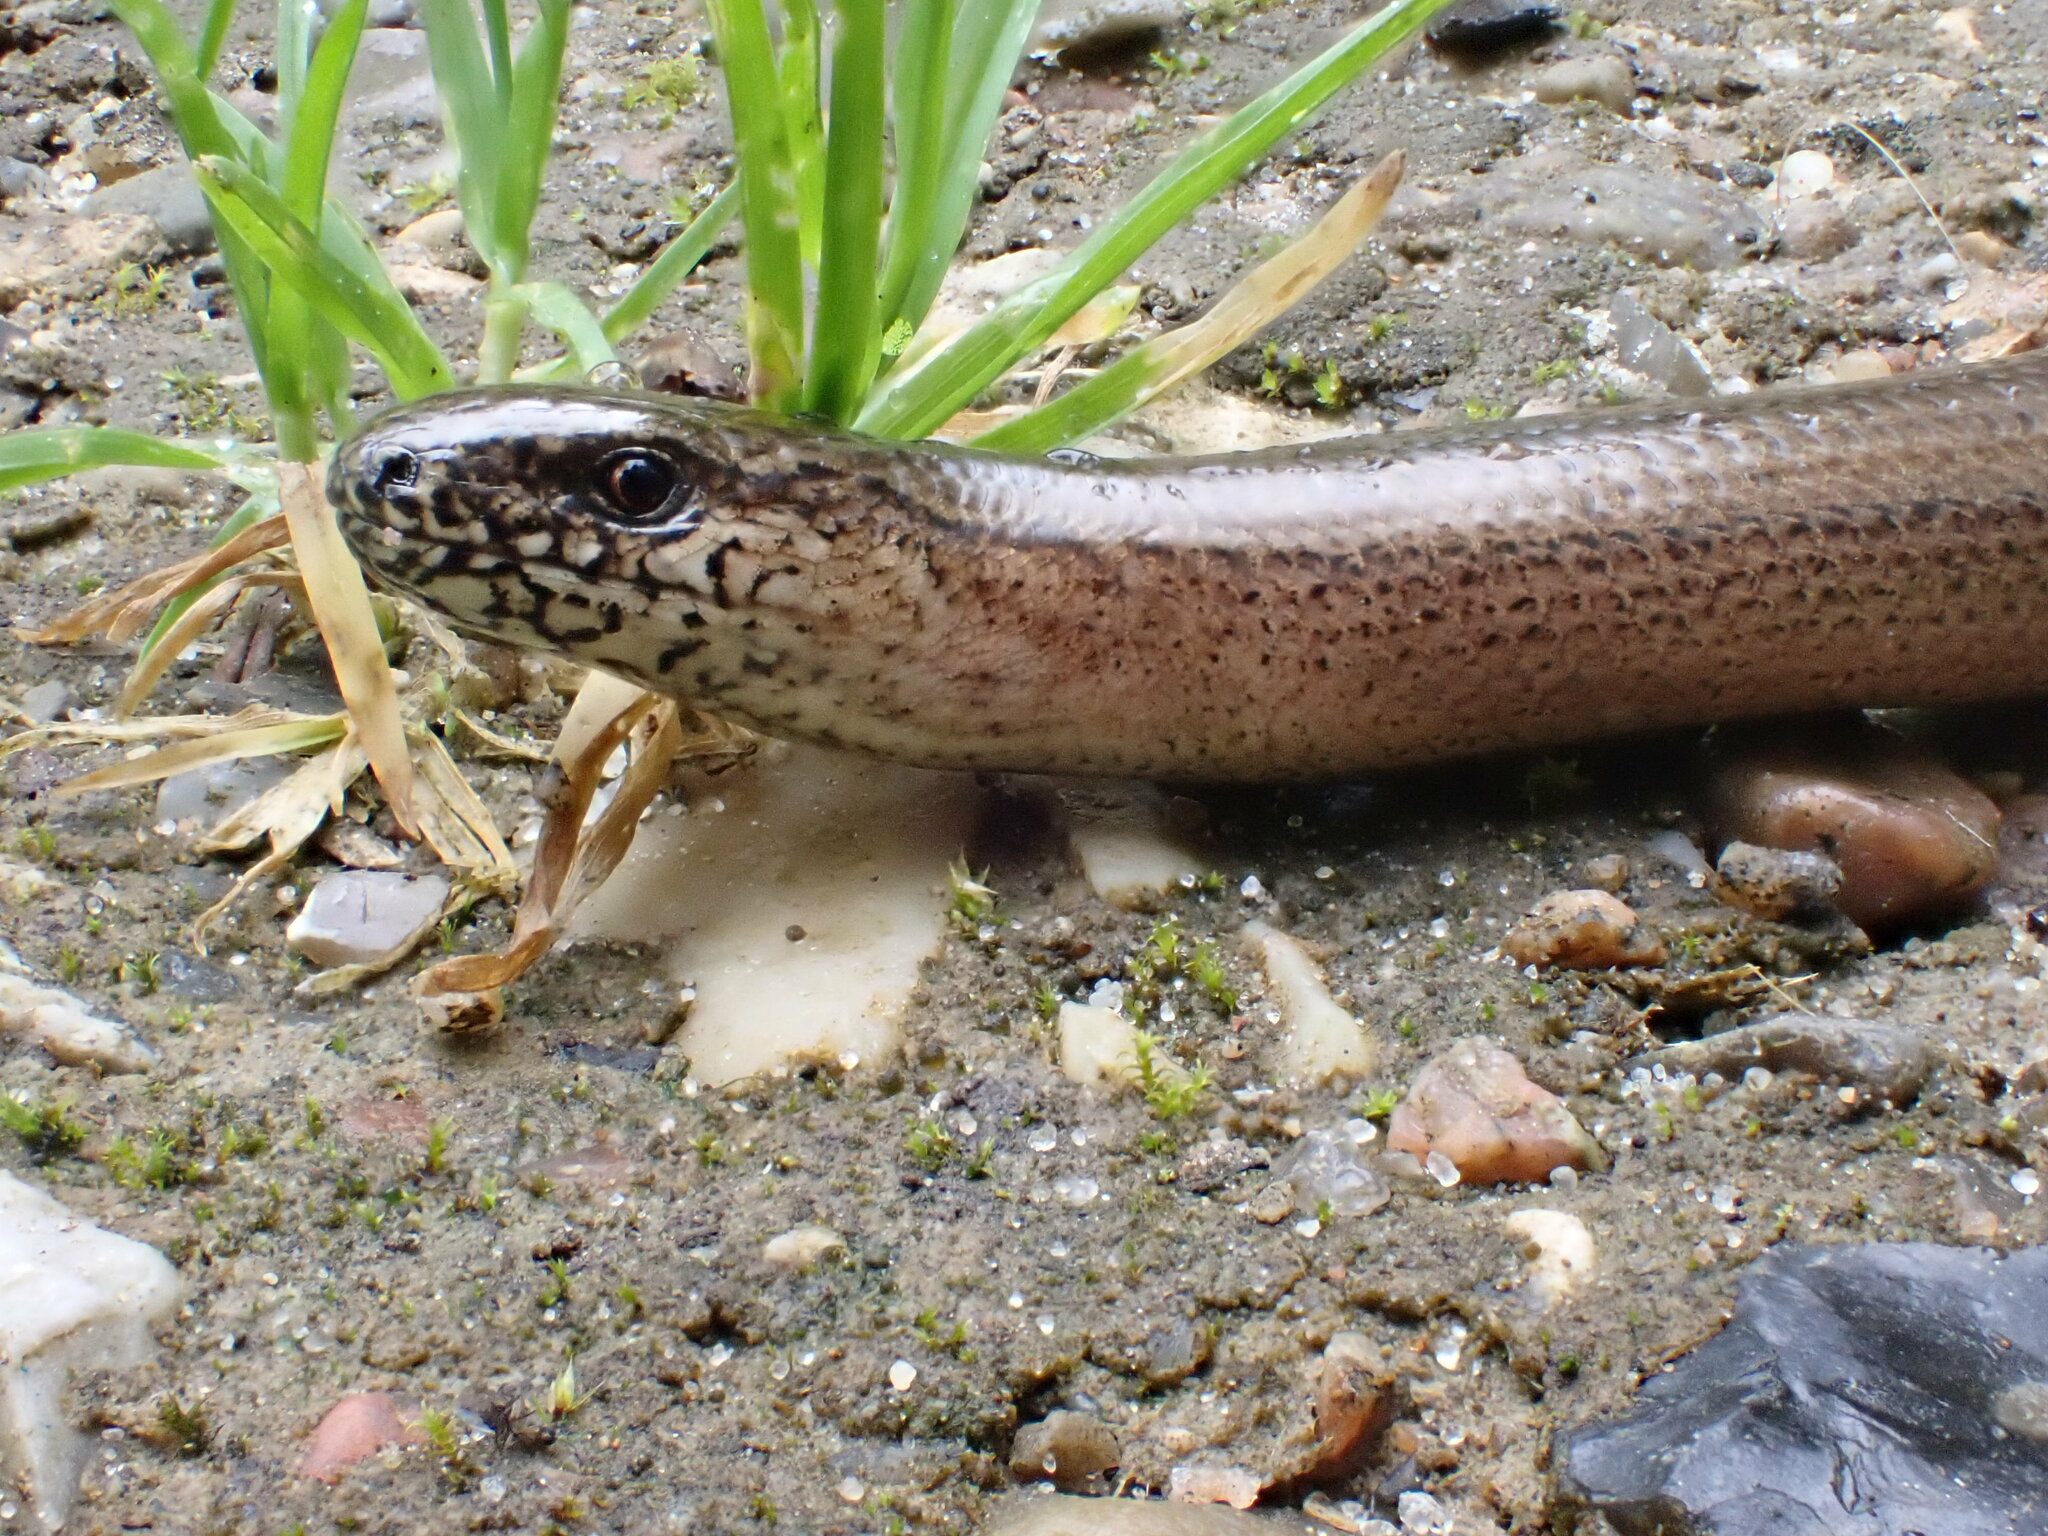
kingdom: Animalia
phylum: Chordata
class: Squamata
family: Anguidae
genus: Anguis
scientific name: Anguis fragilis
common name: Slow worm
